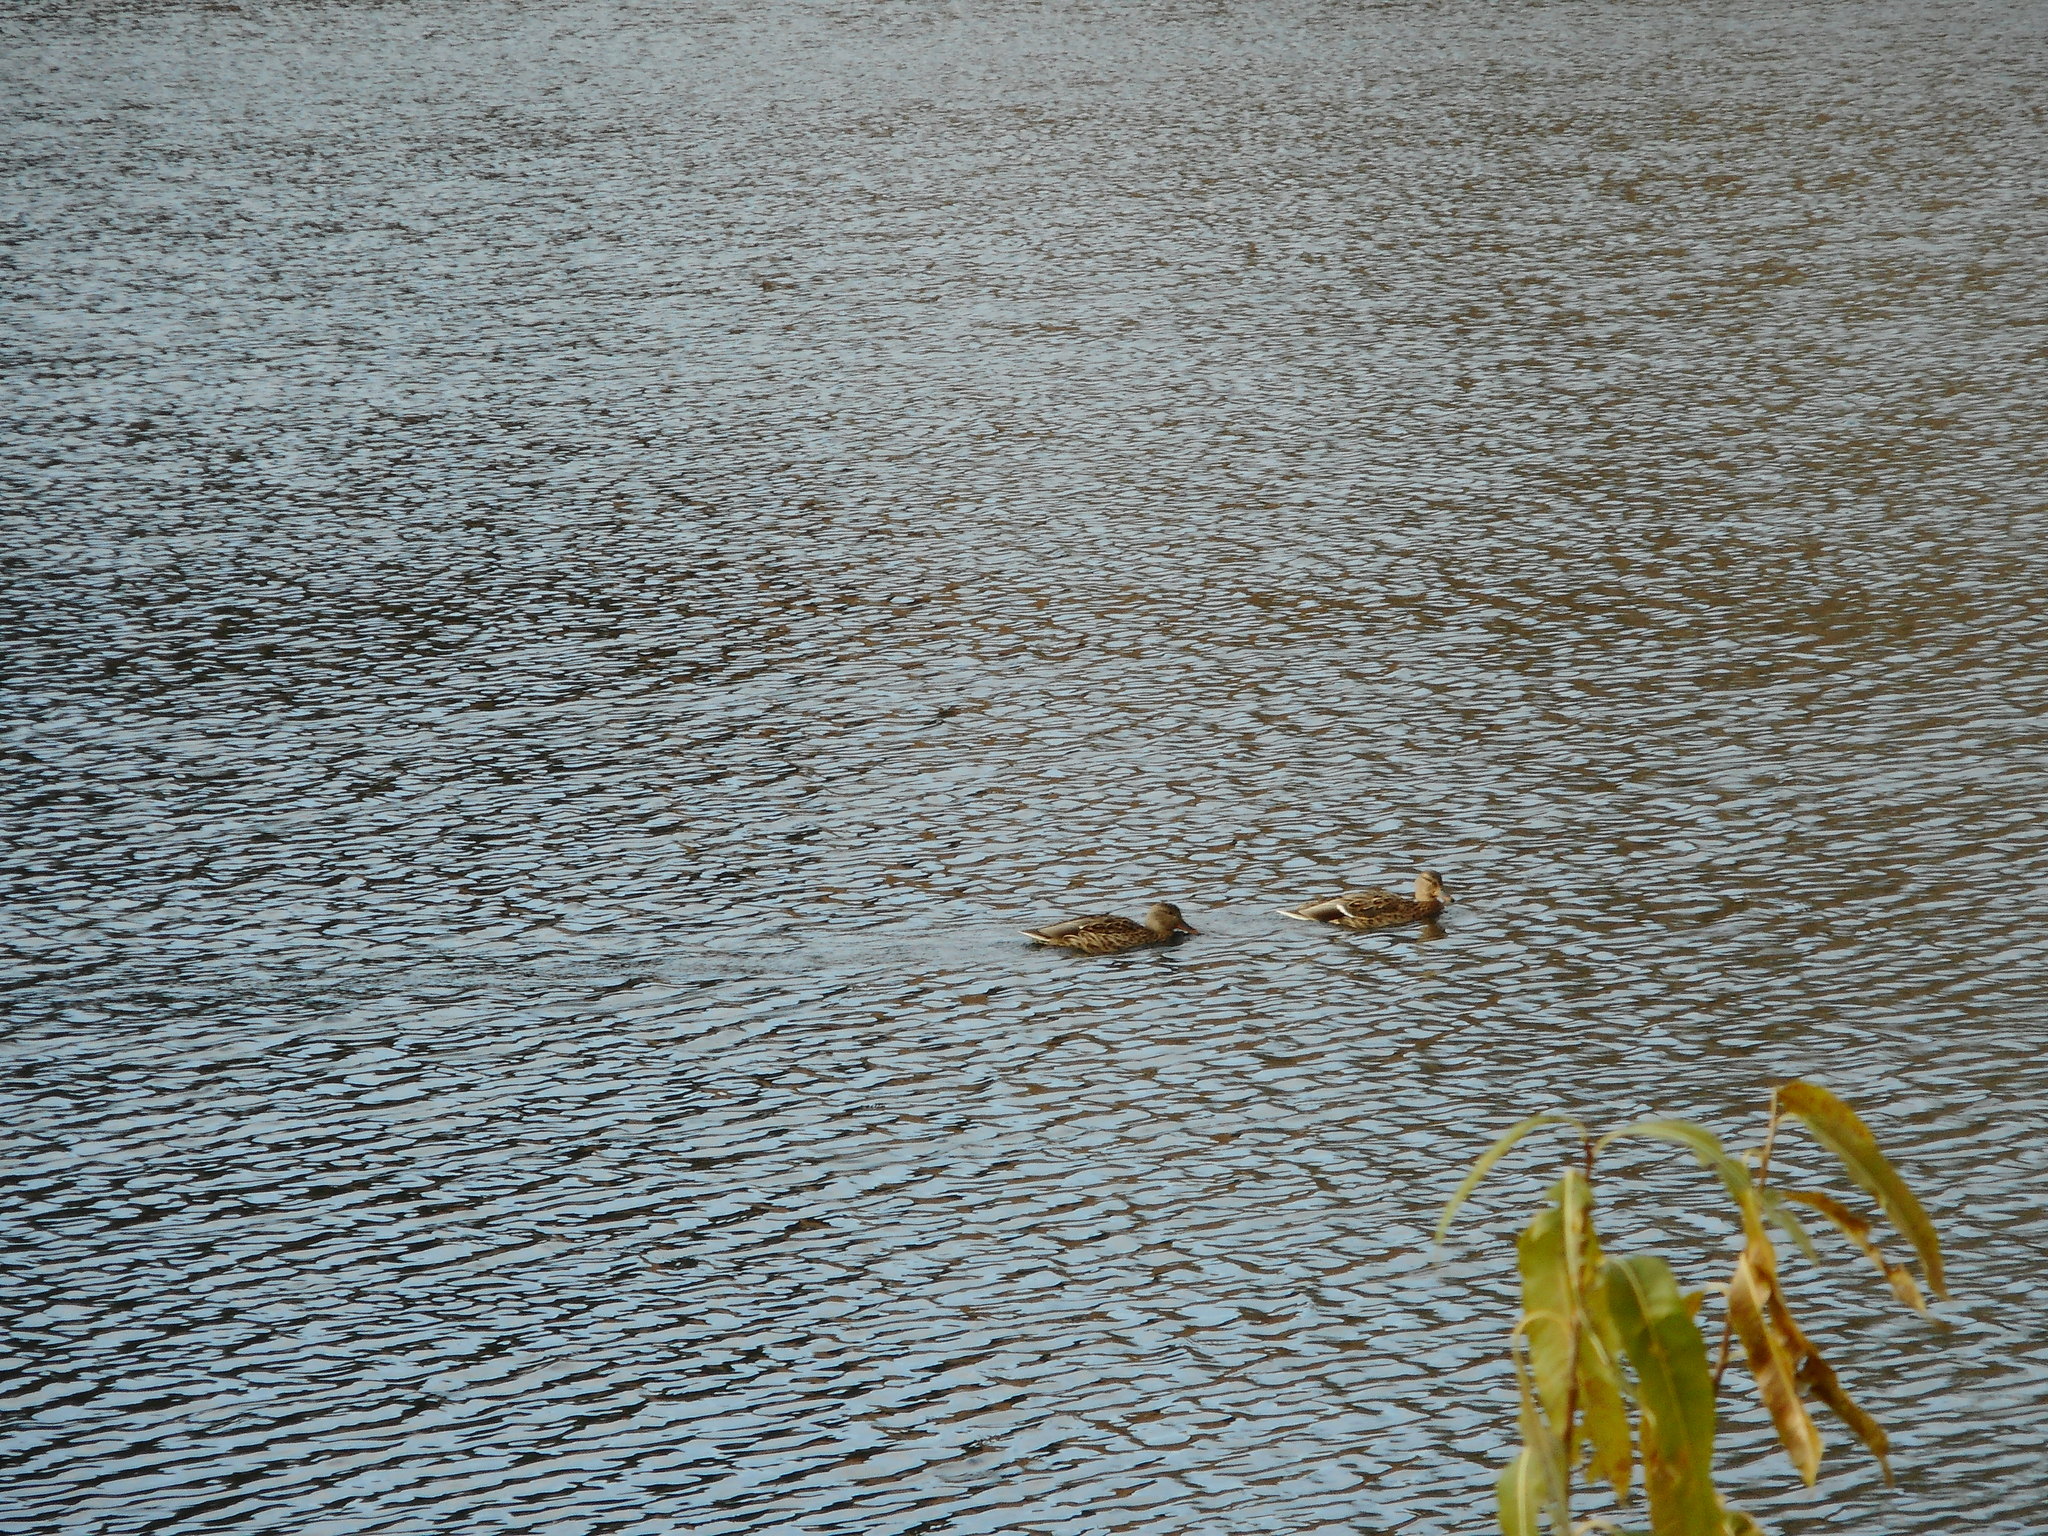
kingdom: Animalia
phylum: Chordata
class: Aves
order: Anseriformes
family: Anatidae
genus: Anas
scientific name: Anas platyrhynchos
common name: Mallard
